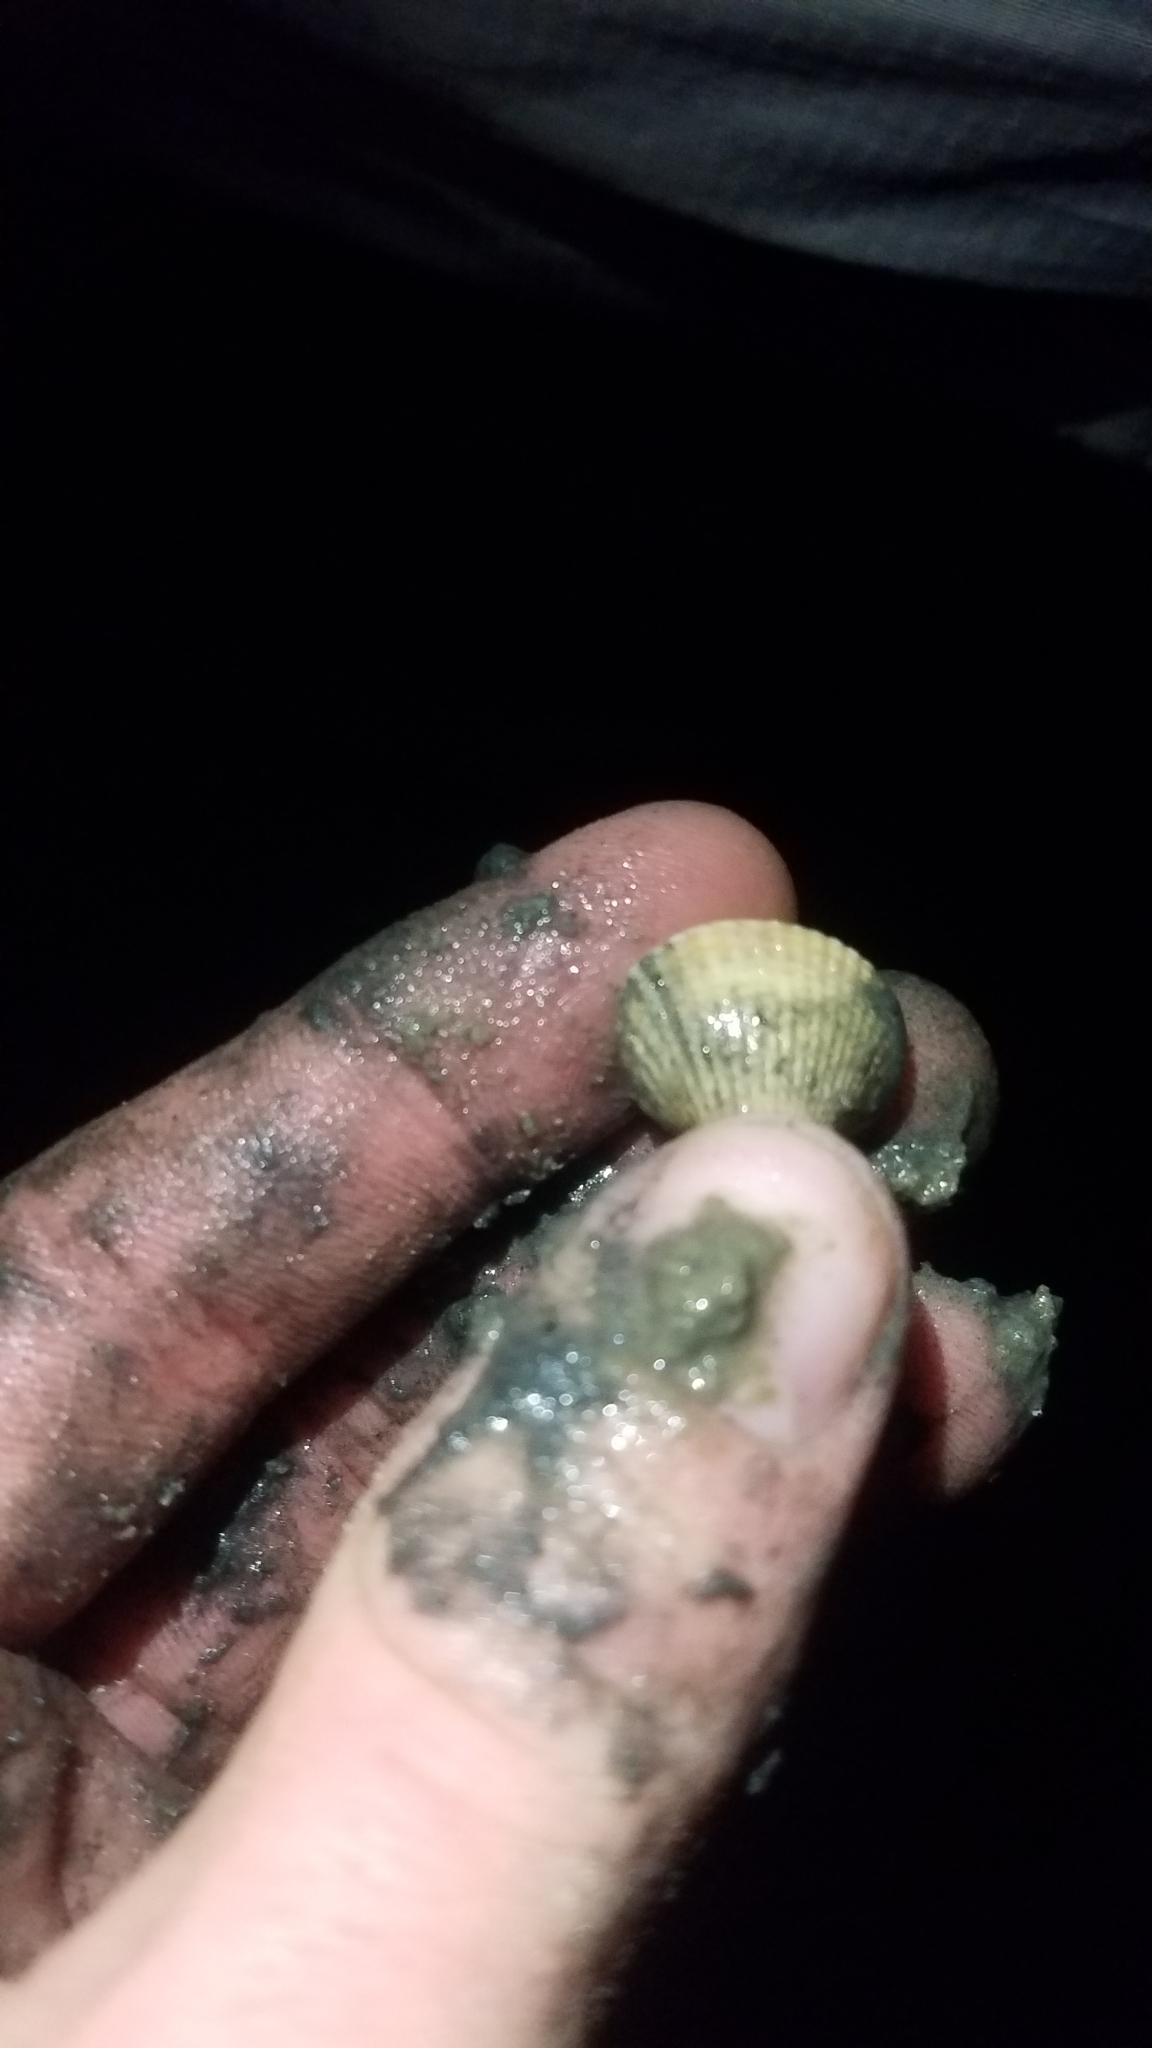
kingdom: Animalia
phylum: Mollusca
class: Bivalvia
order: Cardiida
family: Cardiidae
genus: Cerastoderma
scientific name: Cerastoderma edule
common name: Common cockle
